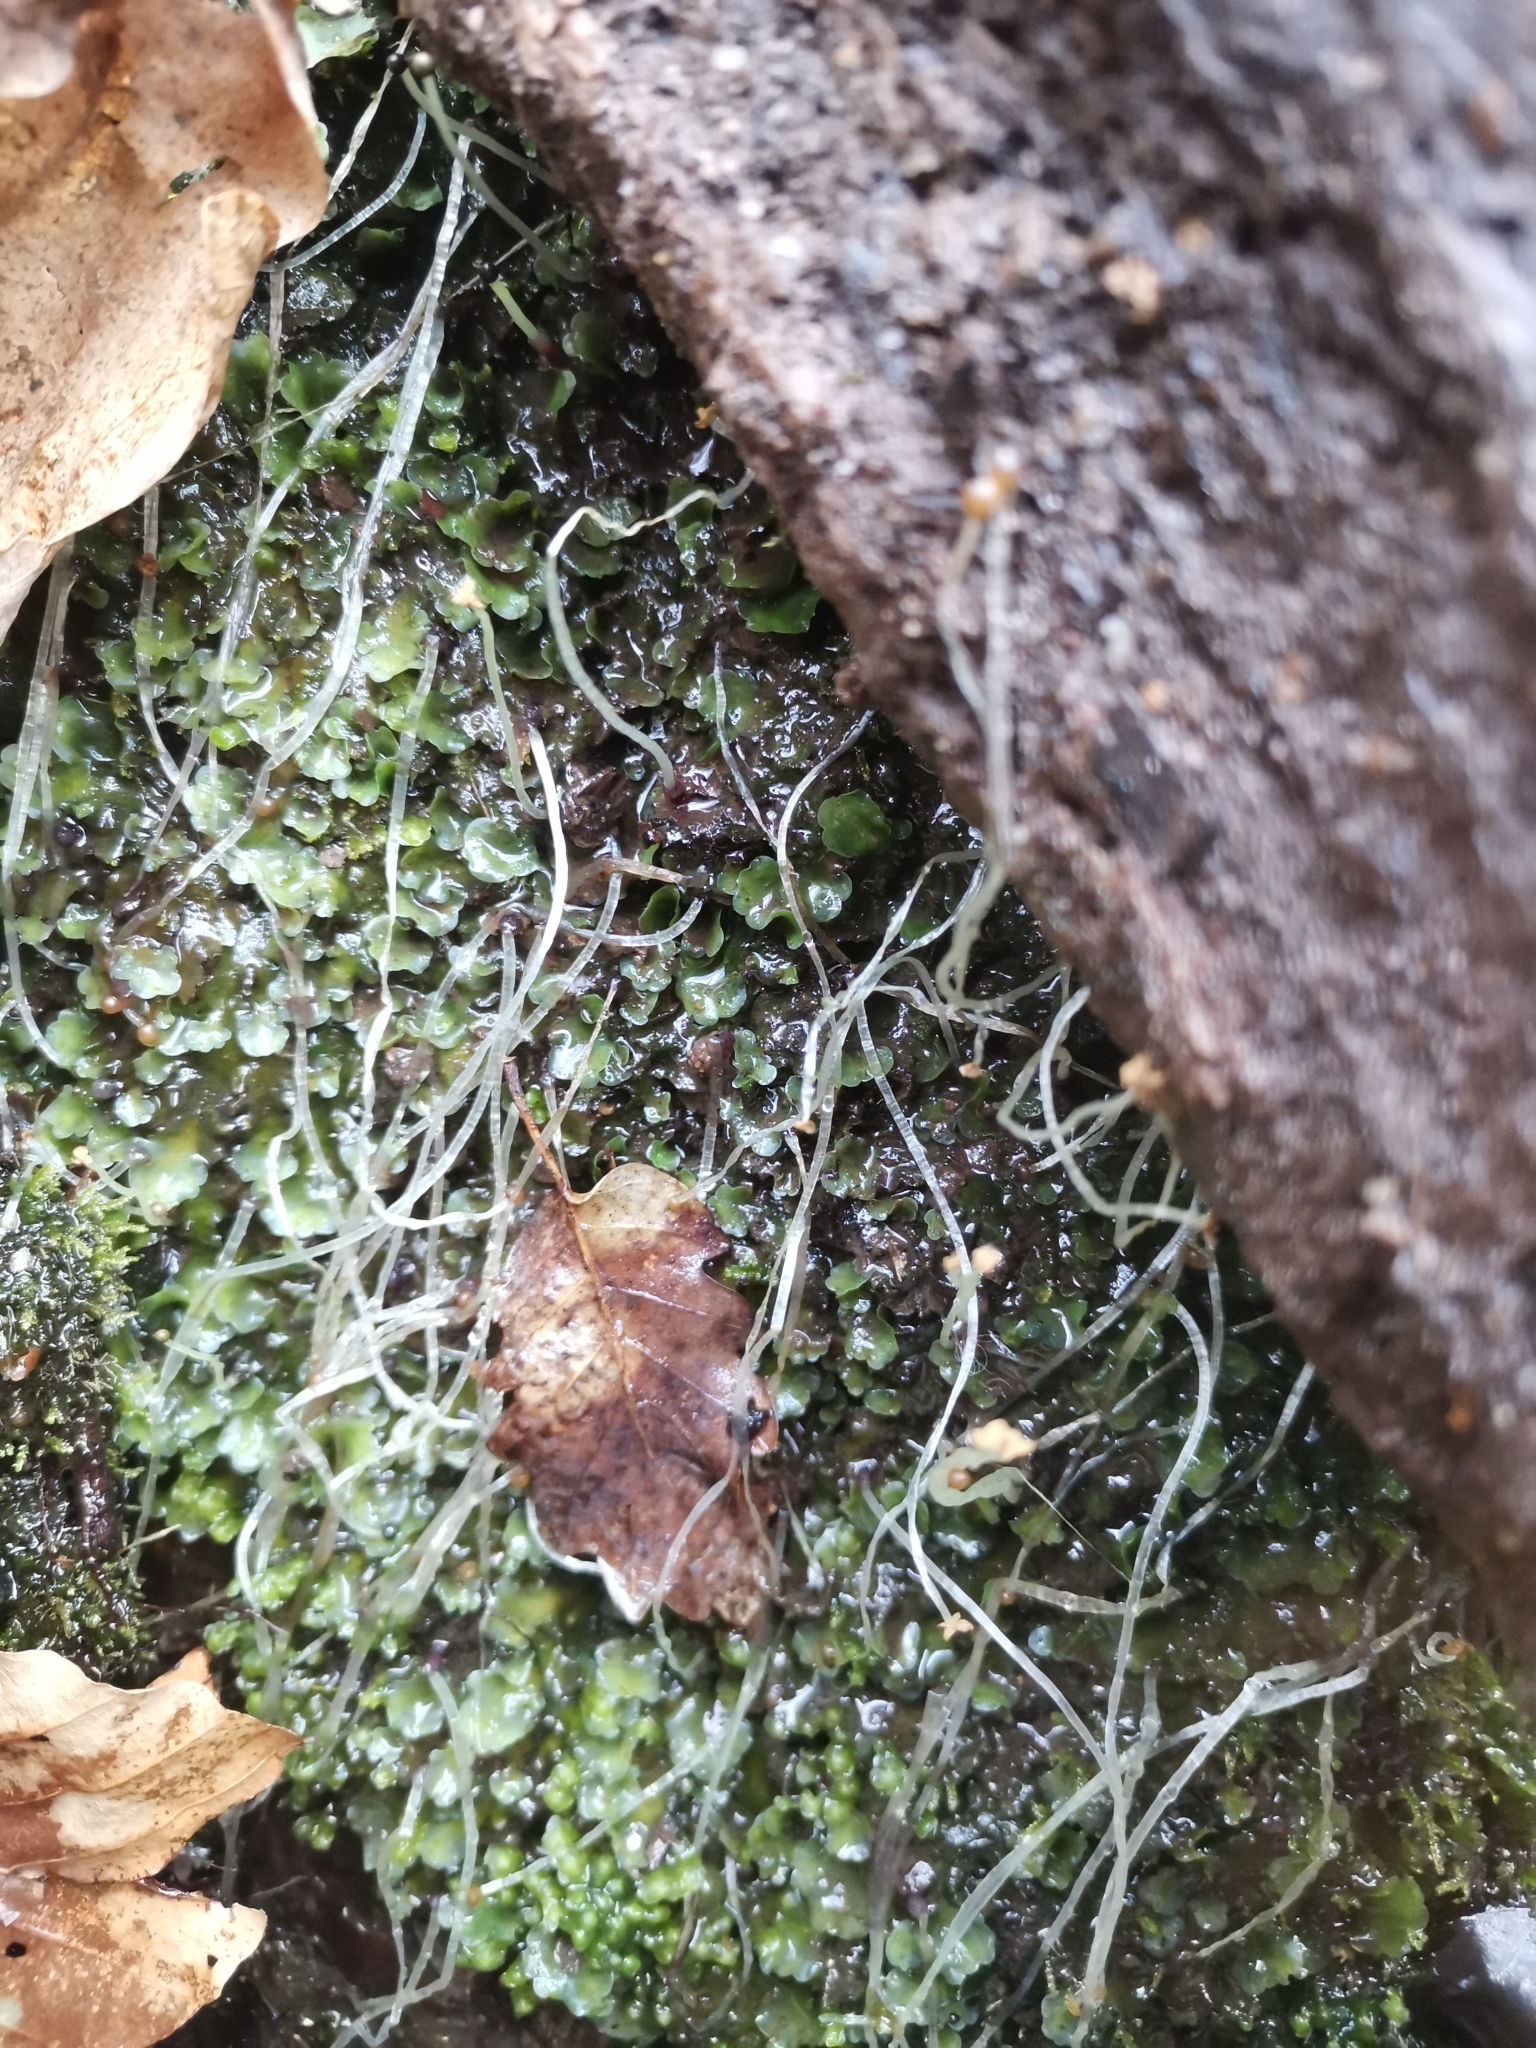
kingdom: Plantae
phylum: Marchantiophyta
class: Jungermanniopsida
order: Pelliales
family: Pelliaceae
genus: Pellia
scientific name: Pellia epiphylla
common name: Common pellia
